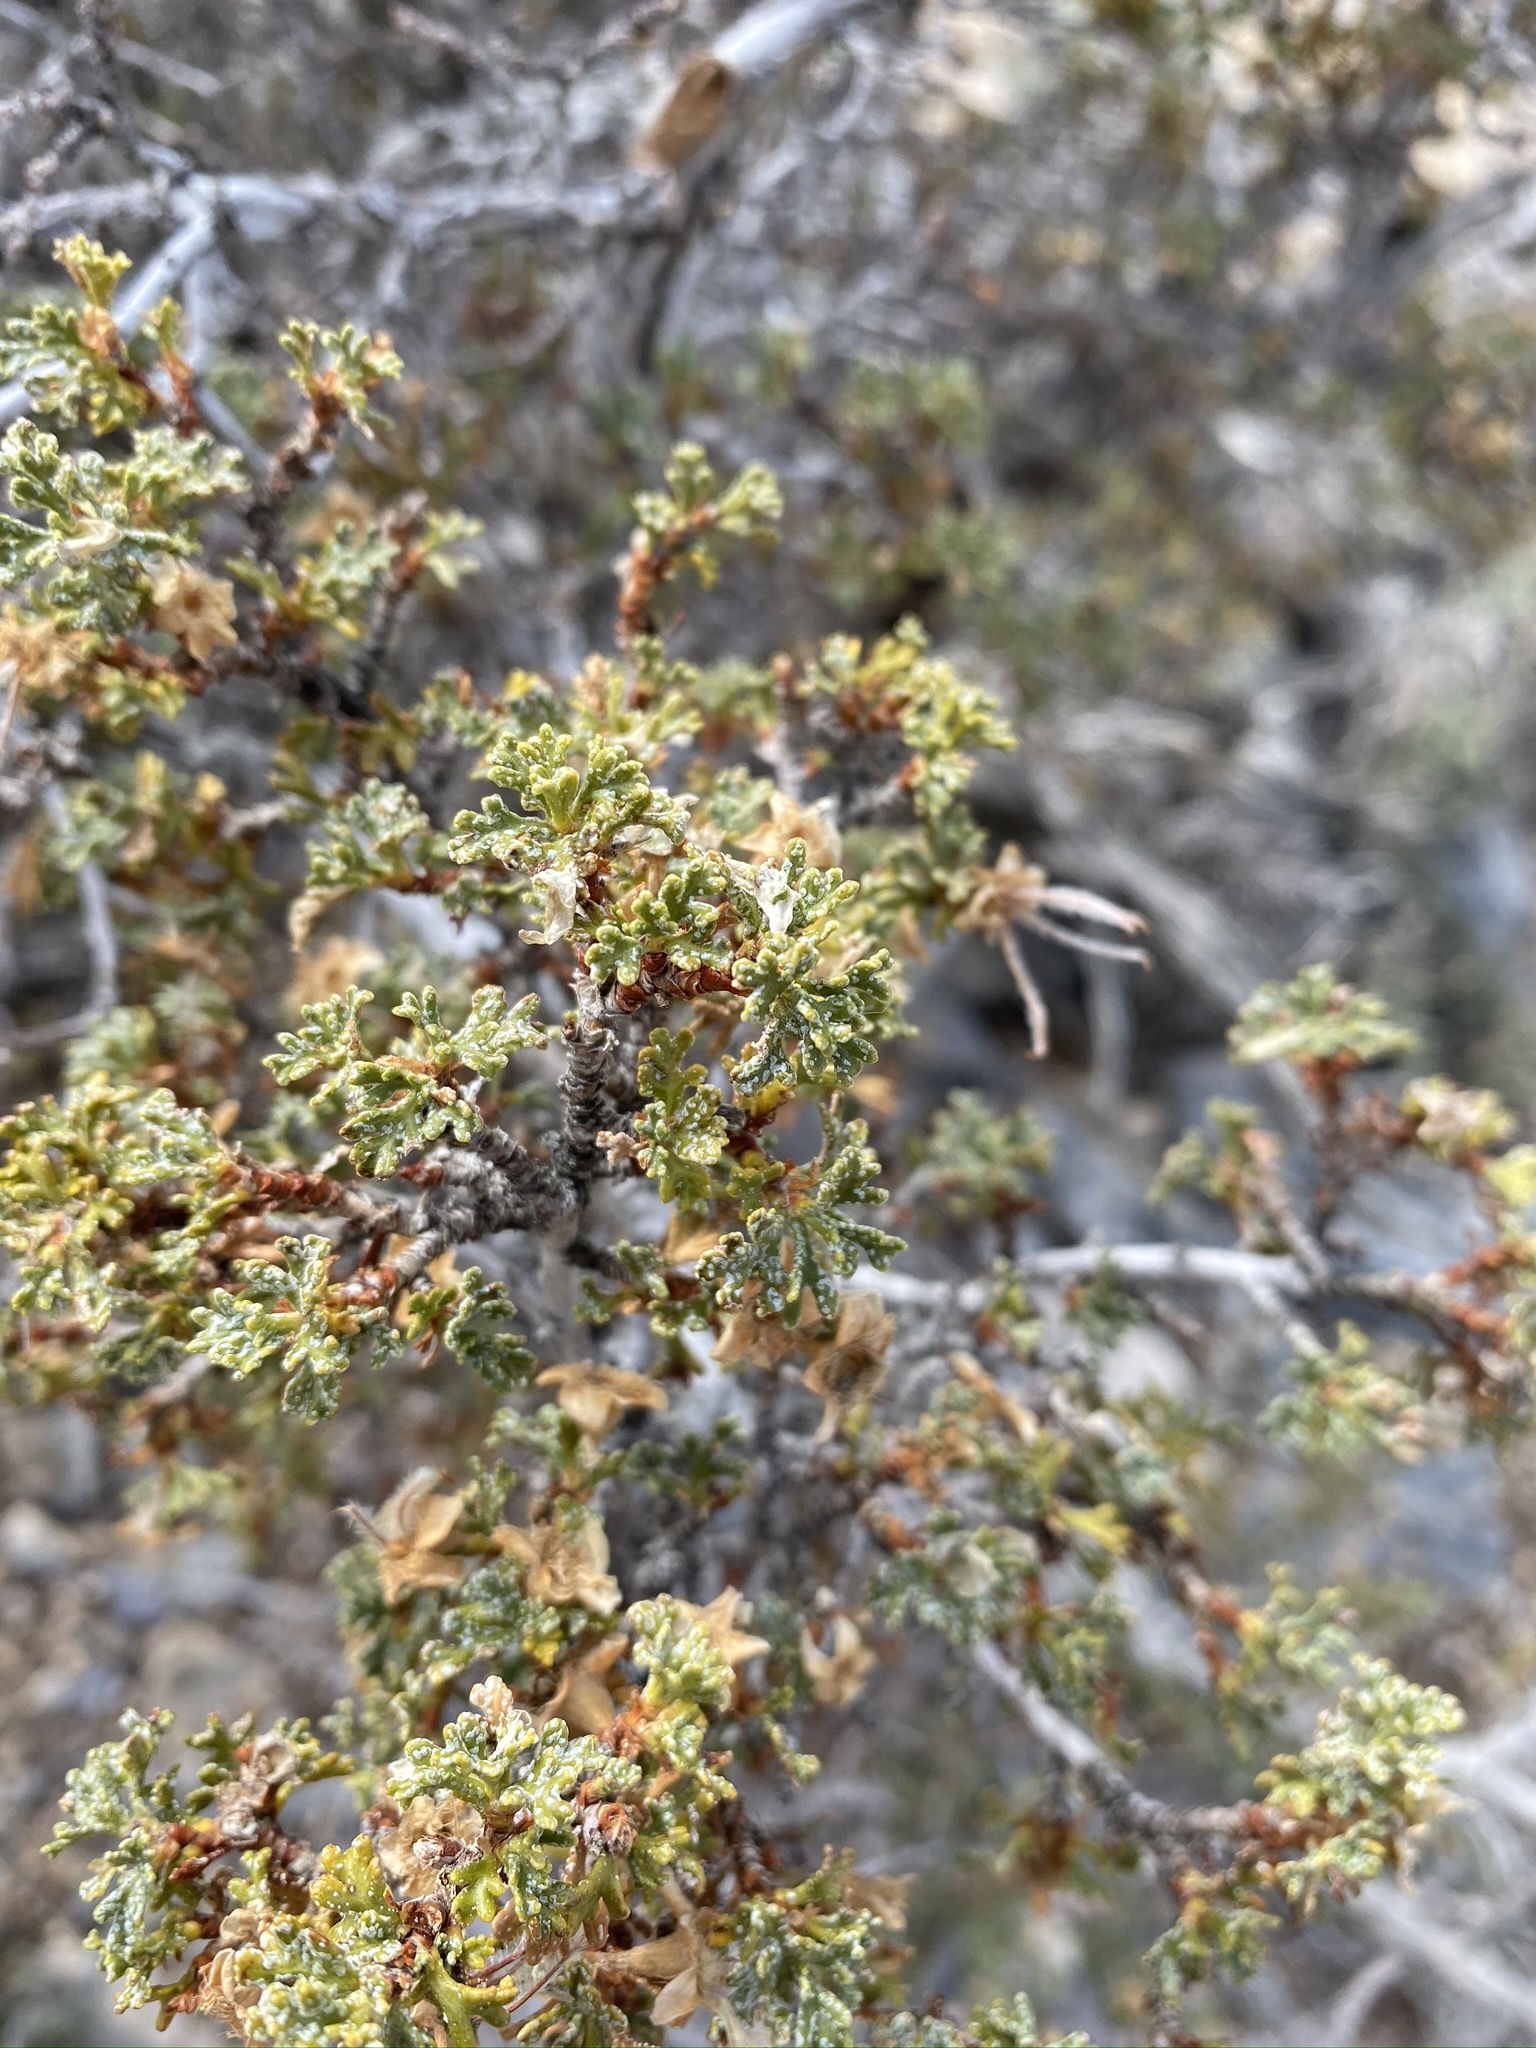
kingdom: Plantae
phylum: Tracheophyta
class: Magnoliopsida
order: Rosales
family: Rosaceae
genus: Purshia
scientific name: Purshia stansburiana
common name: Stansbury's cliffrose
